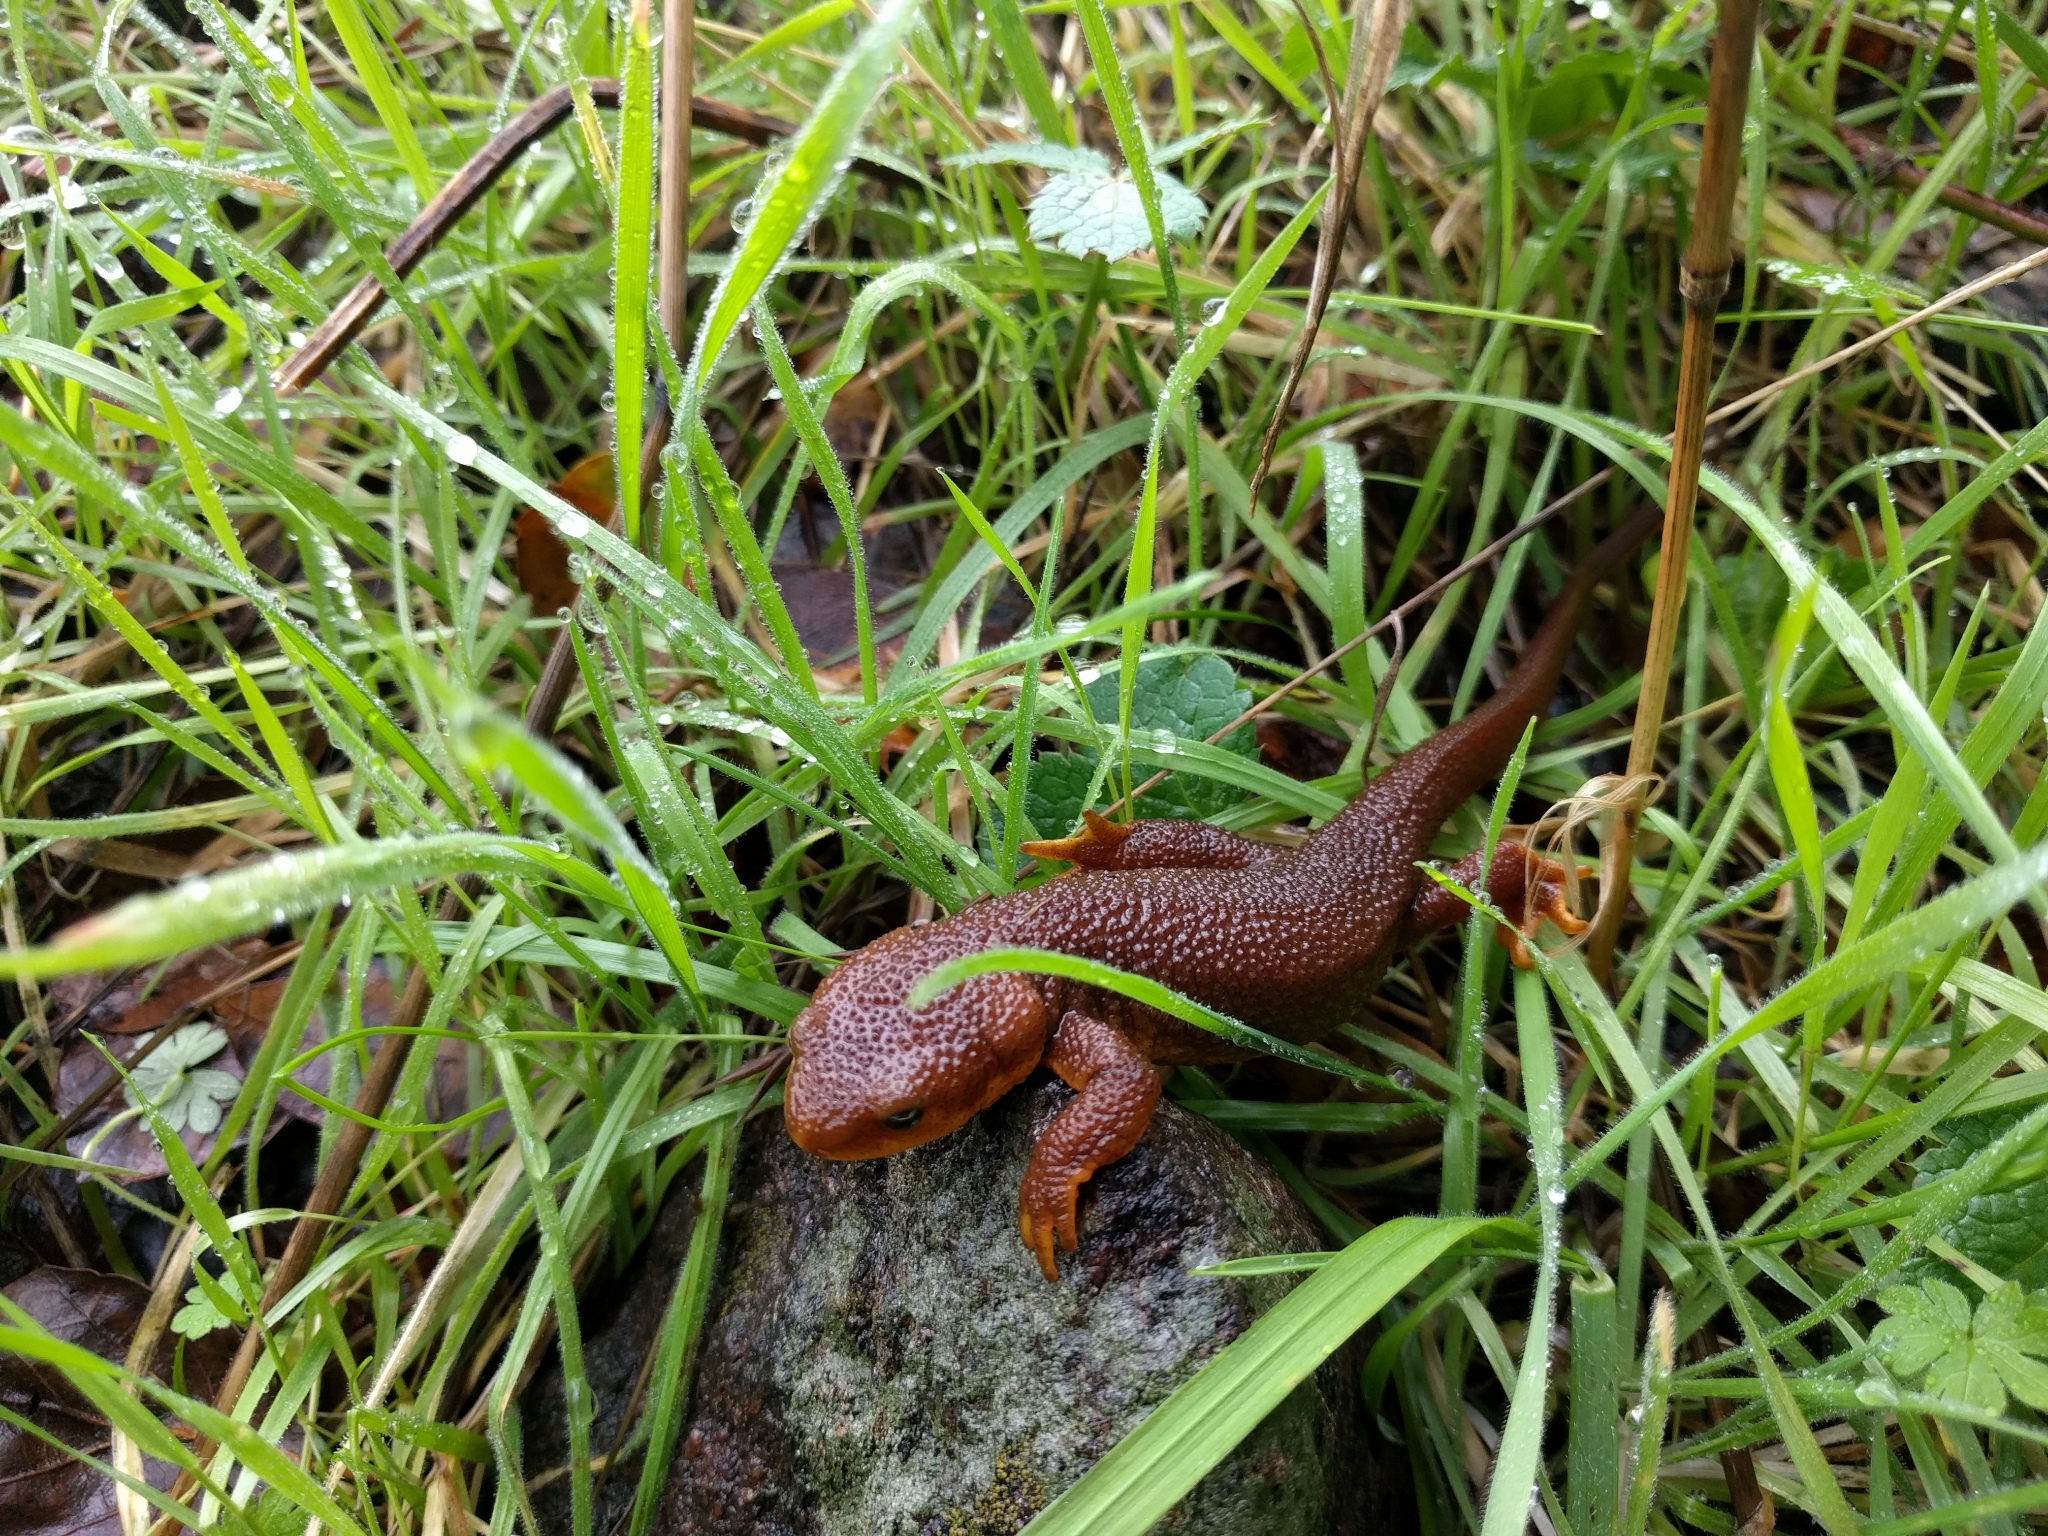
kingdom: Animalia
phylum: Chordata
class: Amphibia
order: Caudata
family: Salamandridae
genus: Taricha
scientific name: Taricha torosa
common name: California newt
